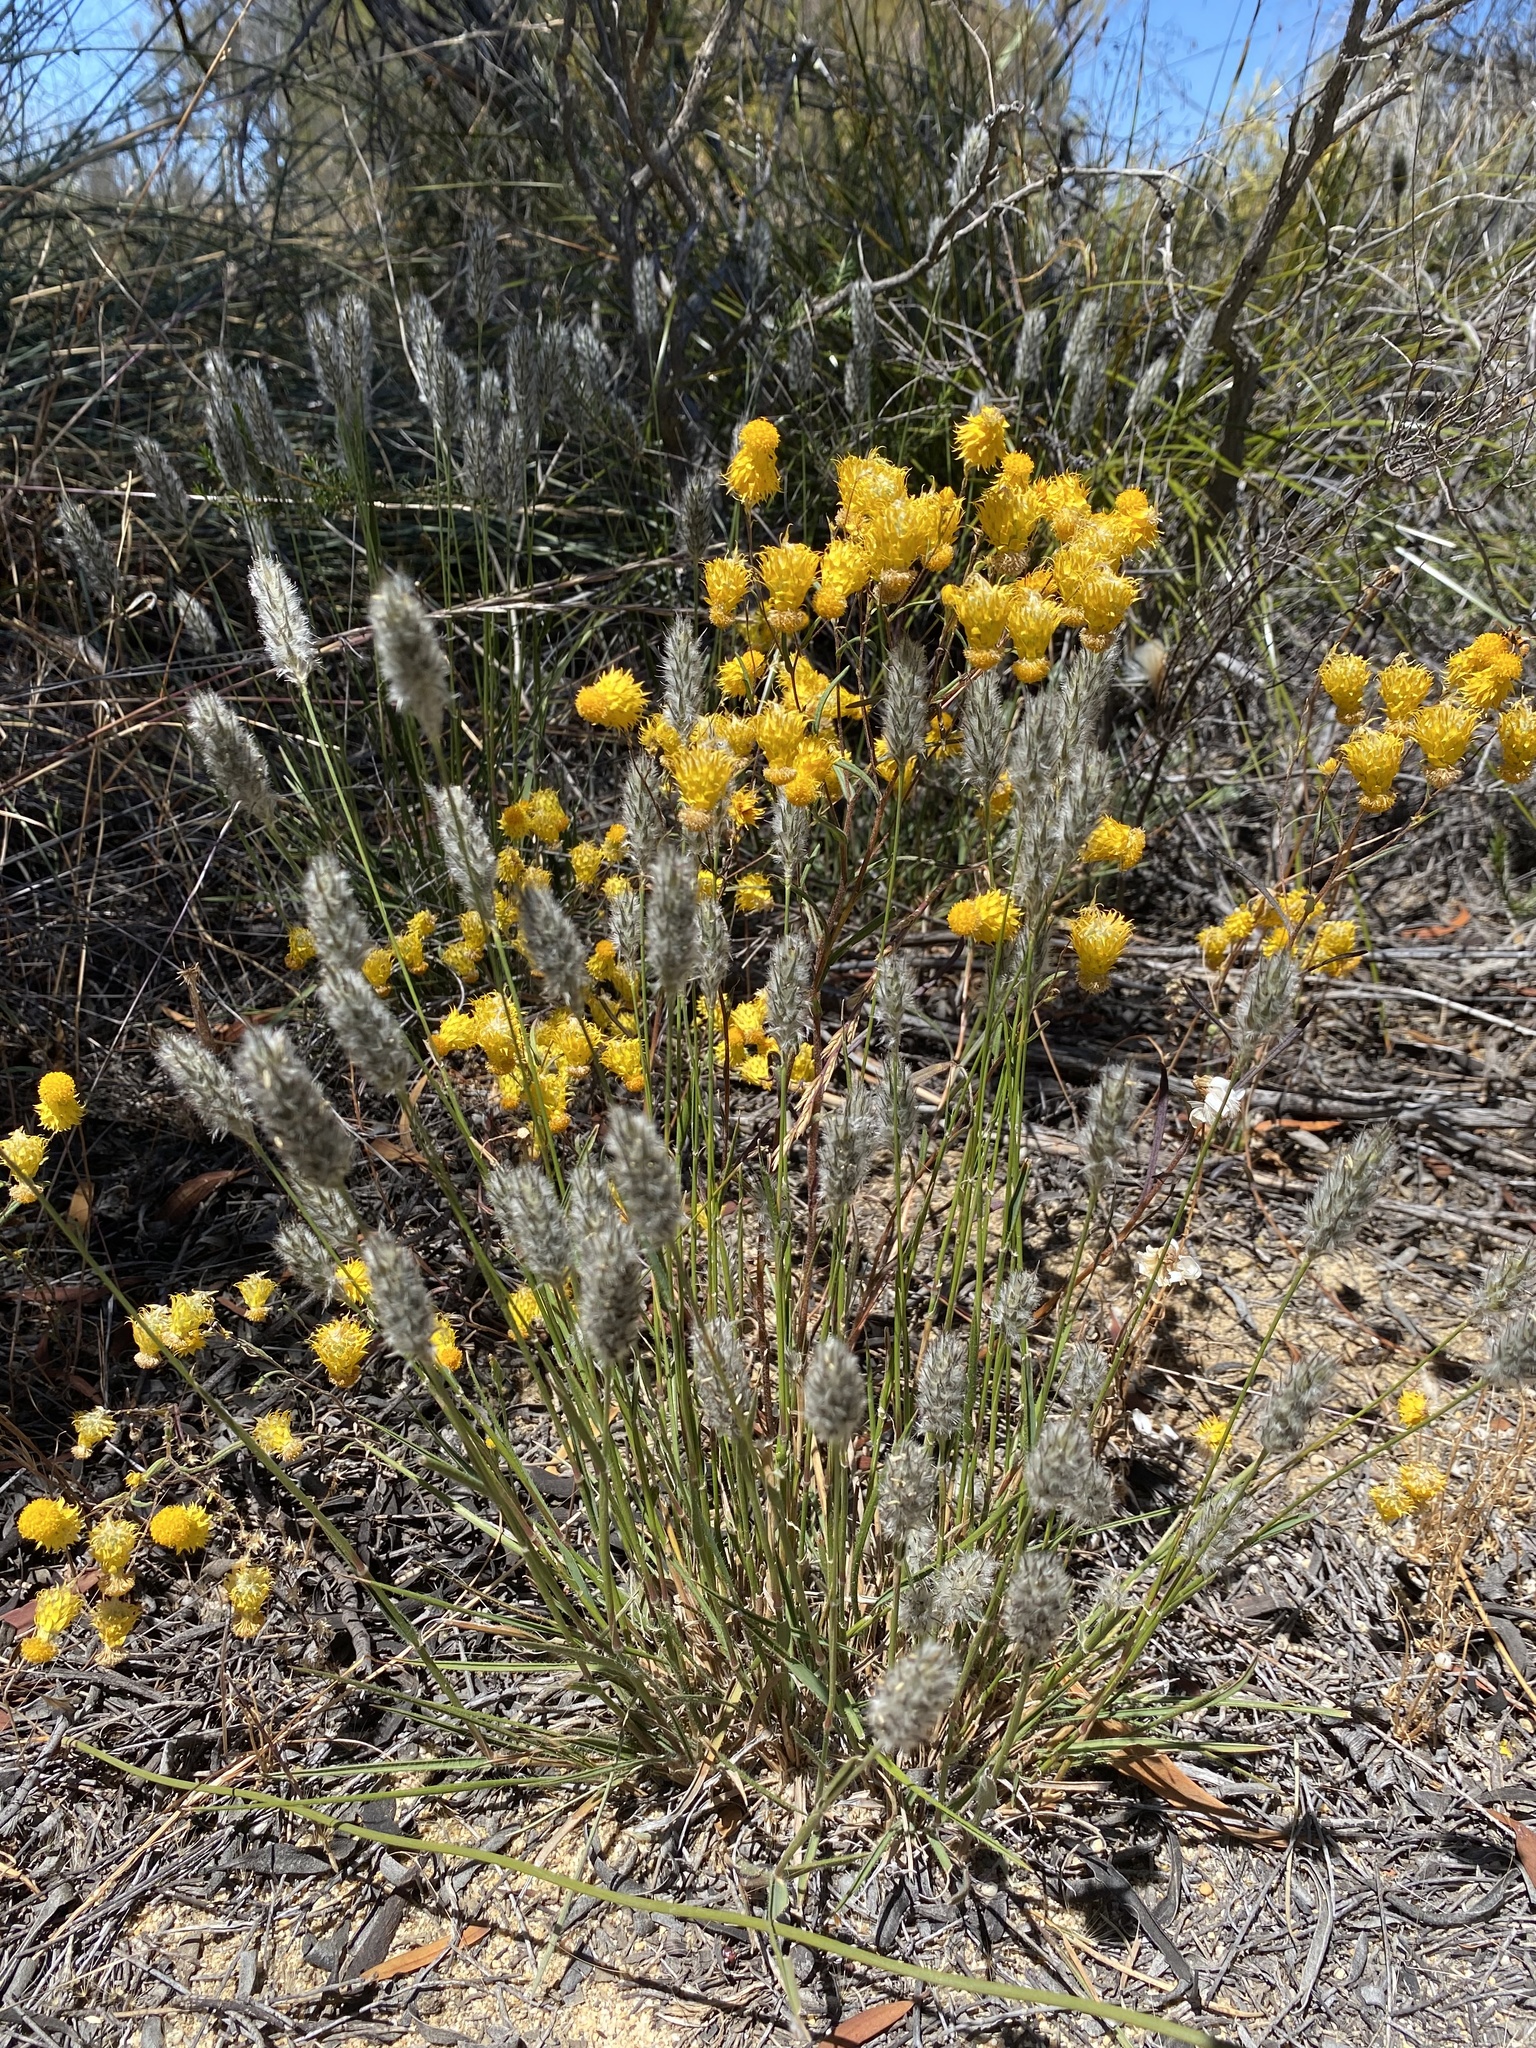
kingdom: Plantae
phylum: Tracheophyta
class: Liliopsida
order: Poales
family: Poaceae
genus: Neurachne
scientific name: Neurachne alopecuroidea
